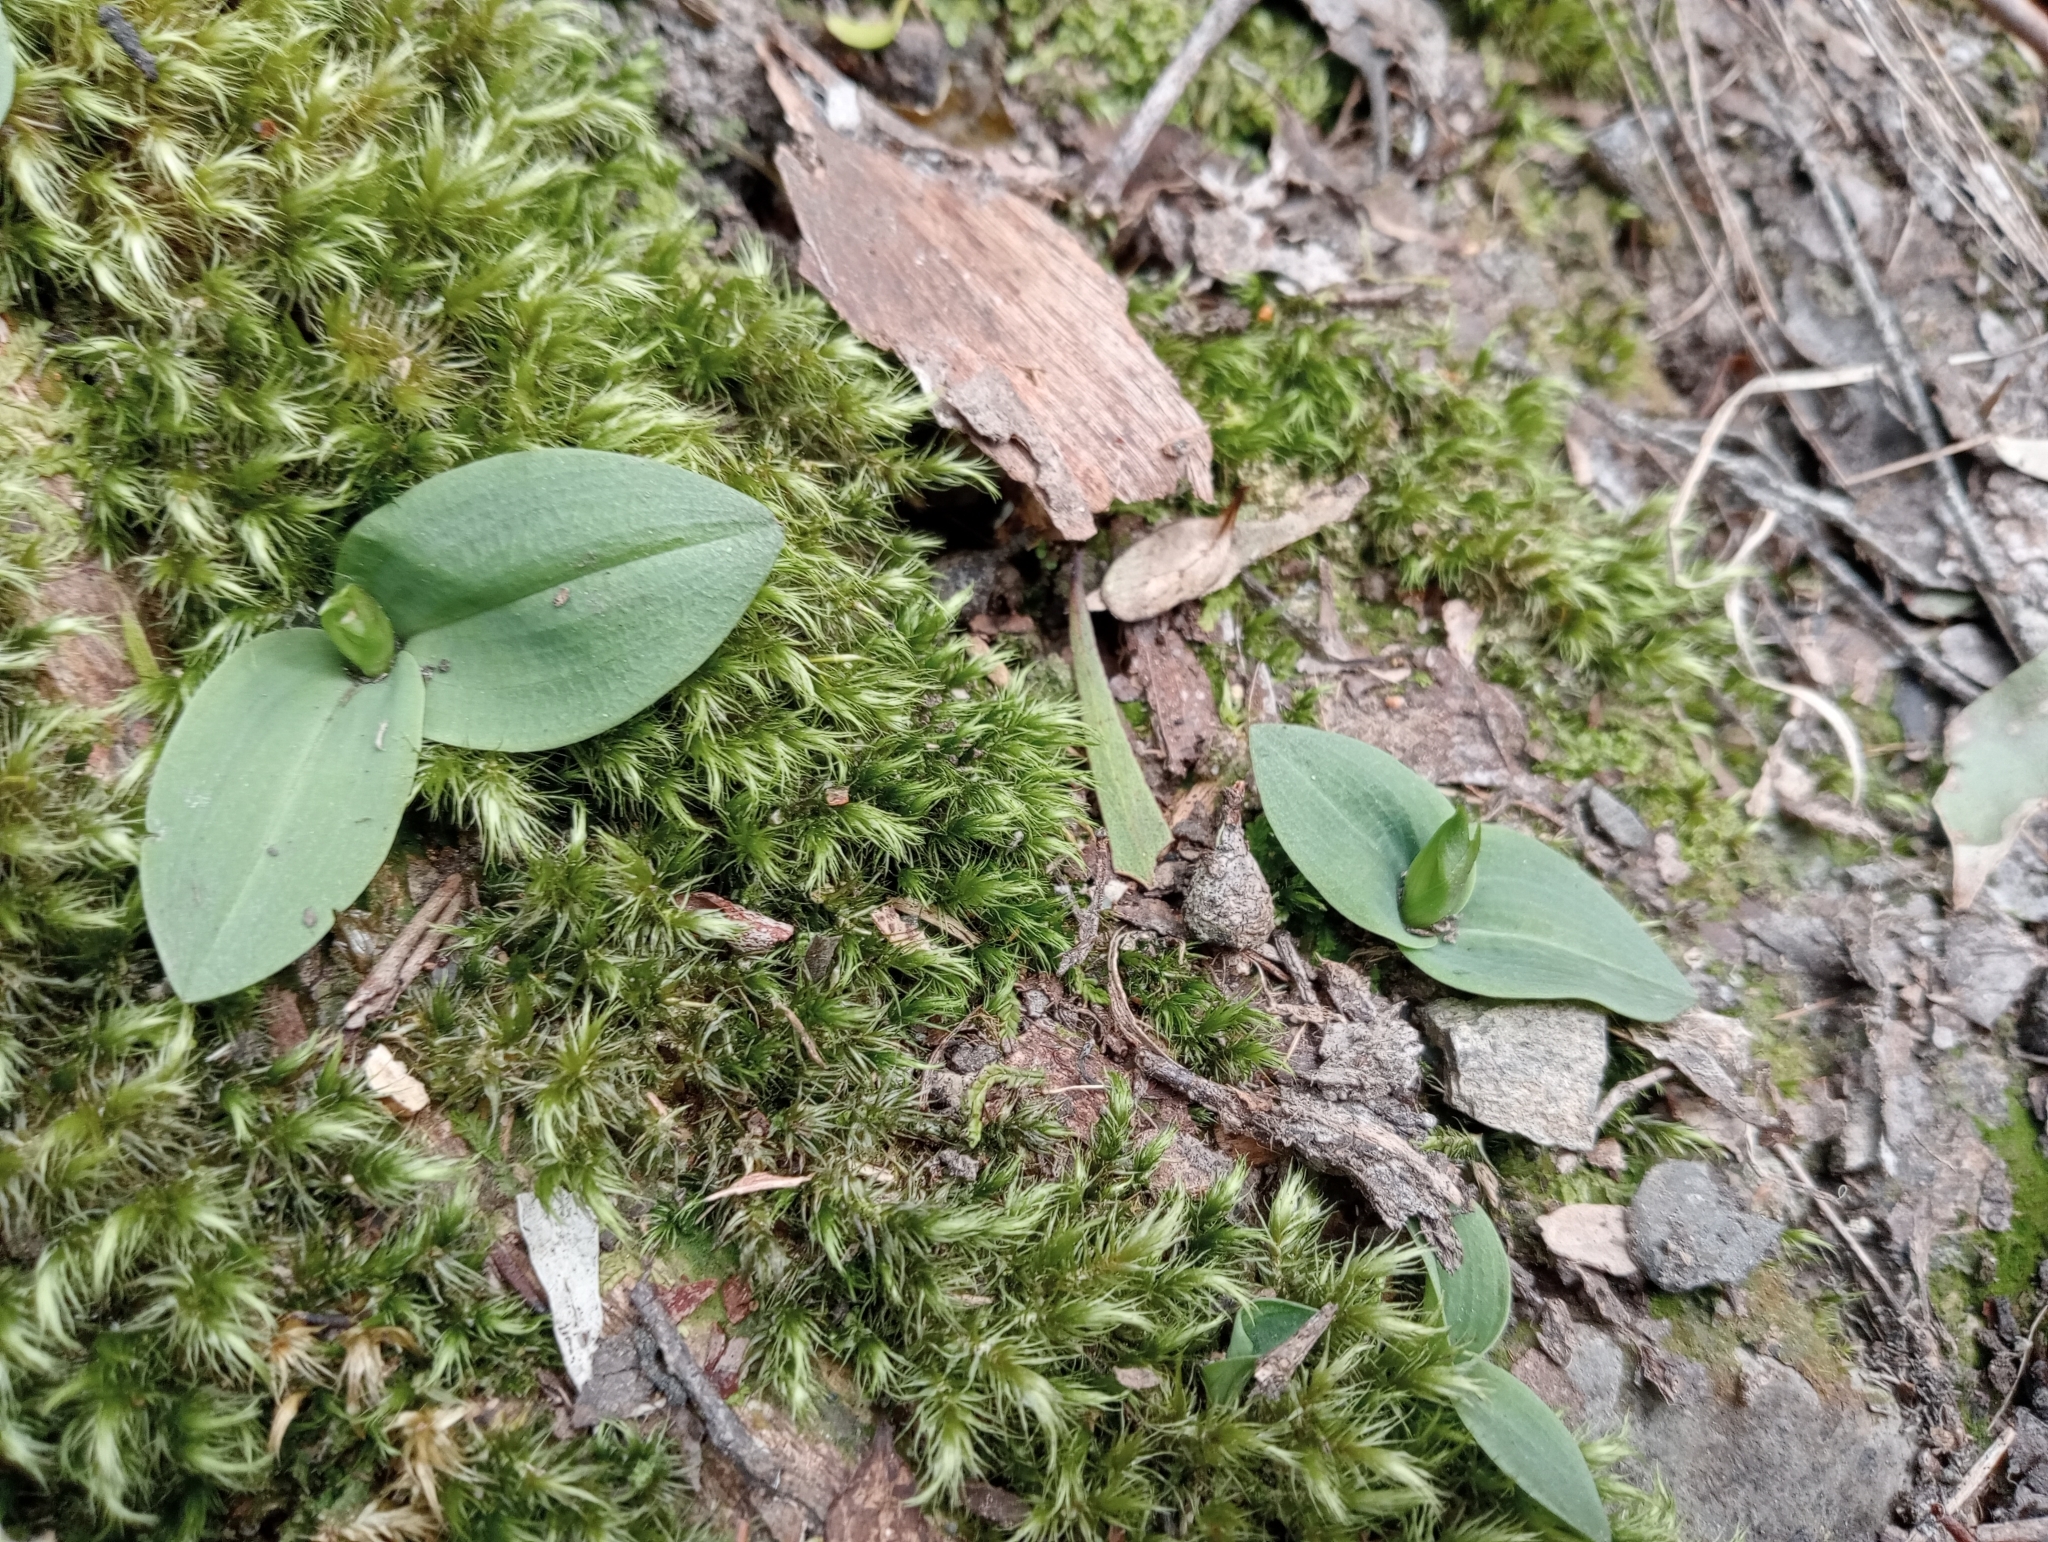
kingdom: Plantae
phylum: Tracheophyta
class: Liliopsida
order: Asparagales
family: Orchidaceae
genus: Chiloglottis
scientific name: Chiloglottis cornuta
